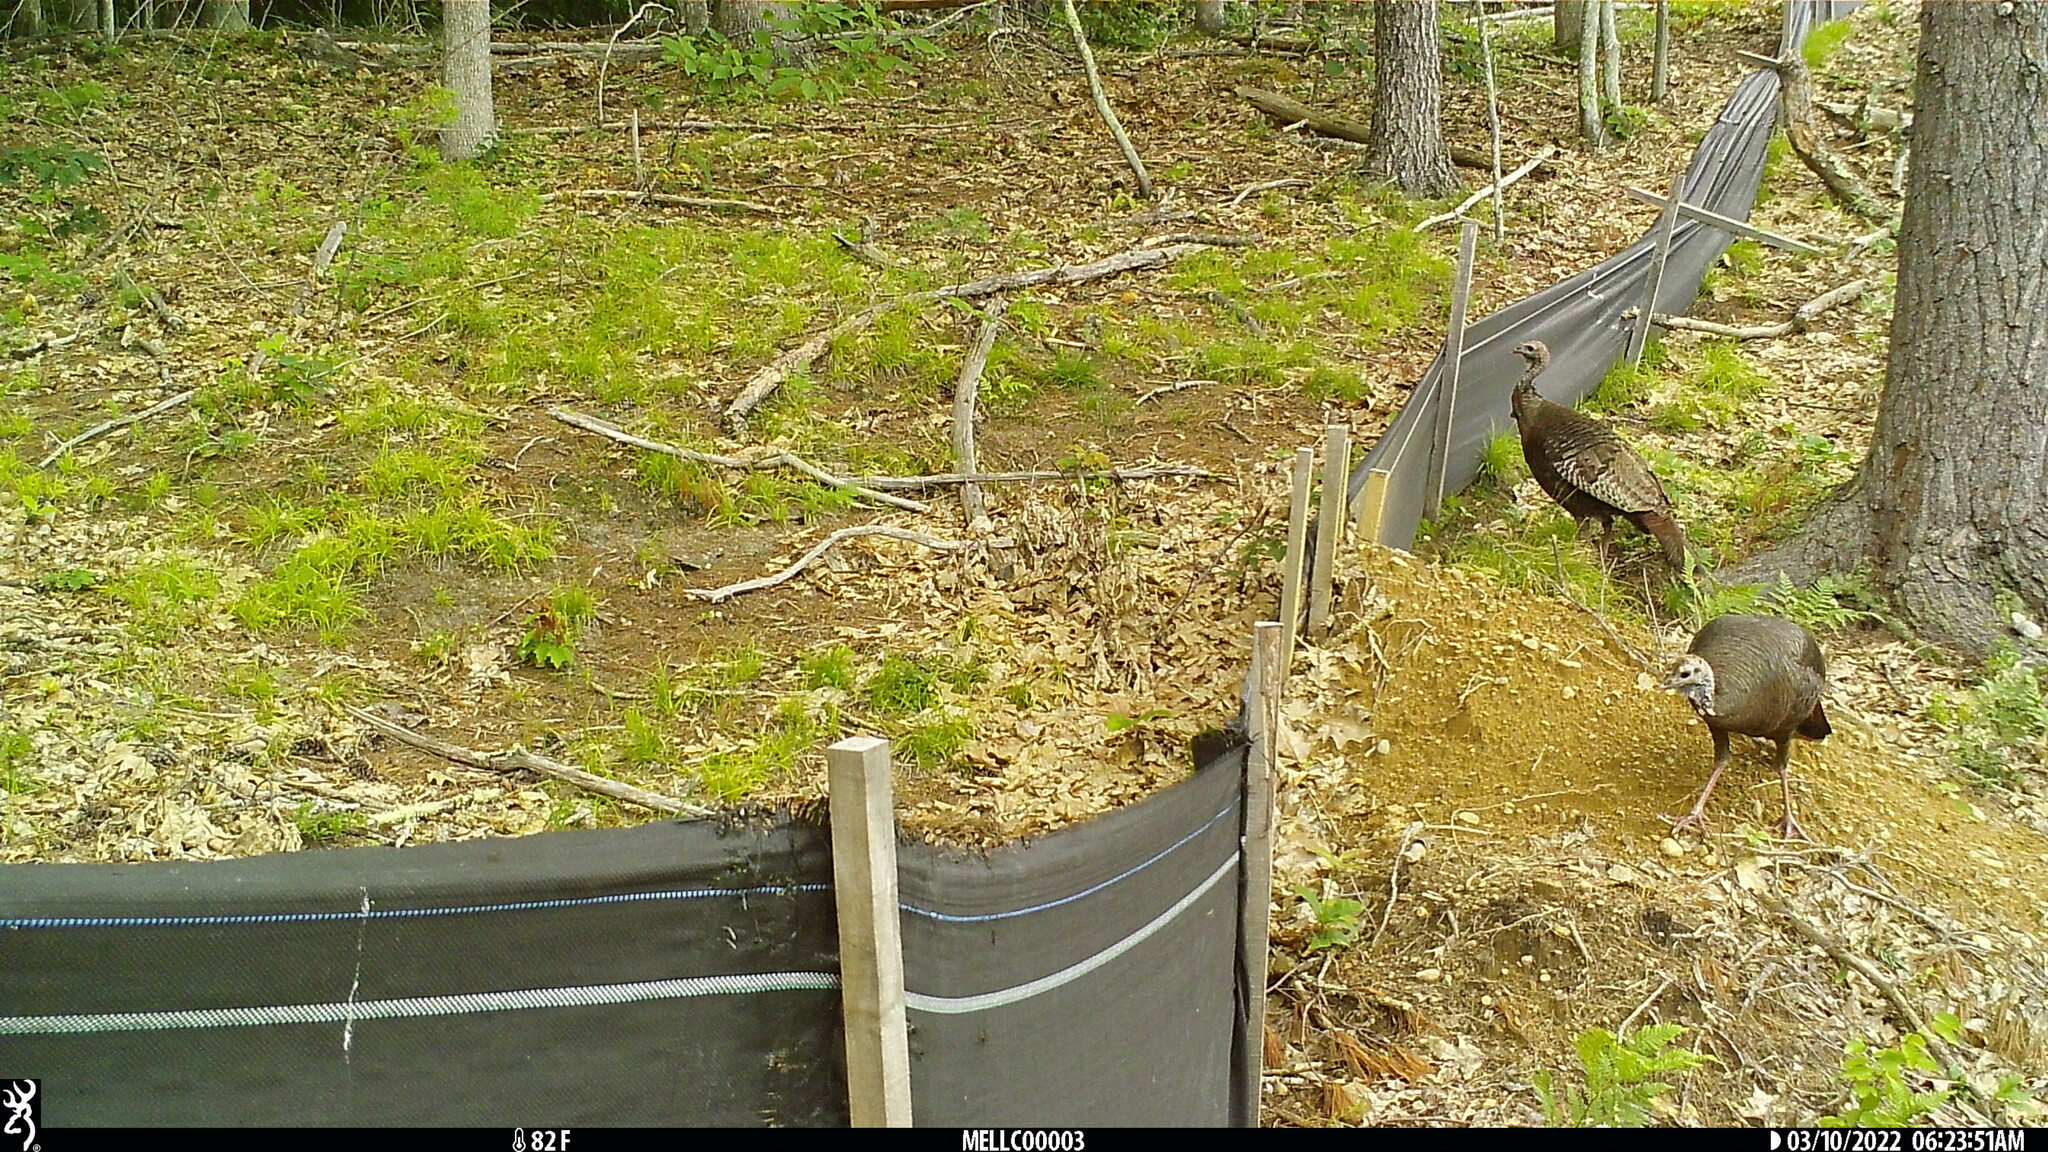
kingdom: Animalia
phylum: Chordata
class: Aves
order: Galliformes
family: Phasianidae
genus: Meleagris
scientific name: Meleagris gallopavo
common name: Wild turkey
